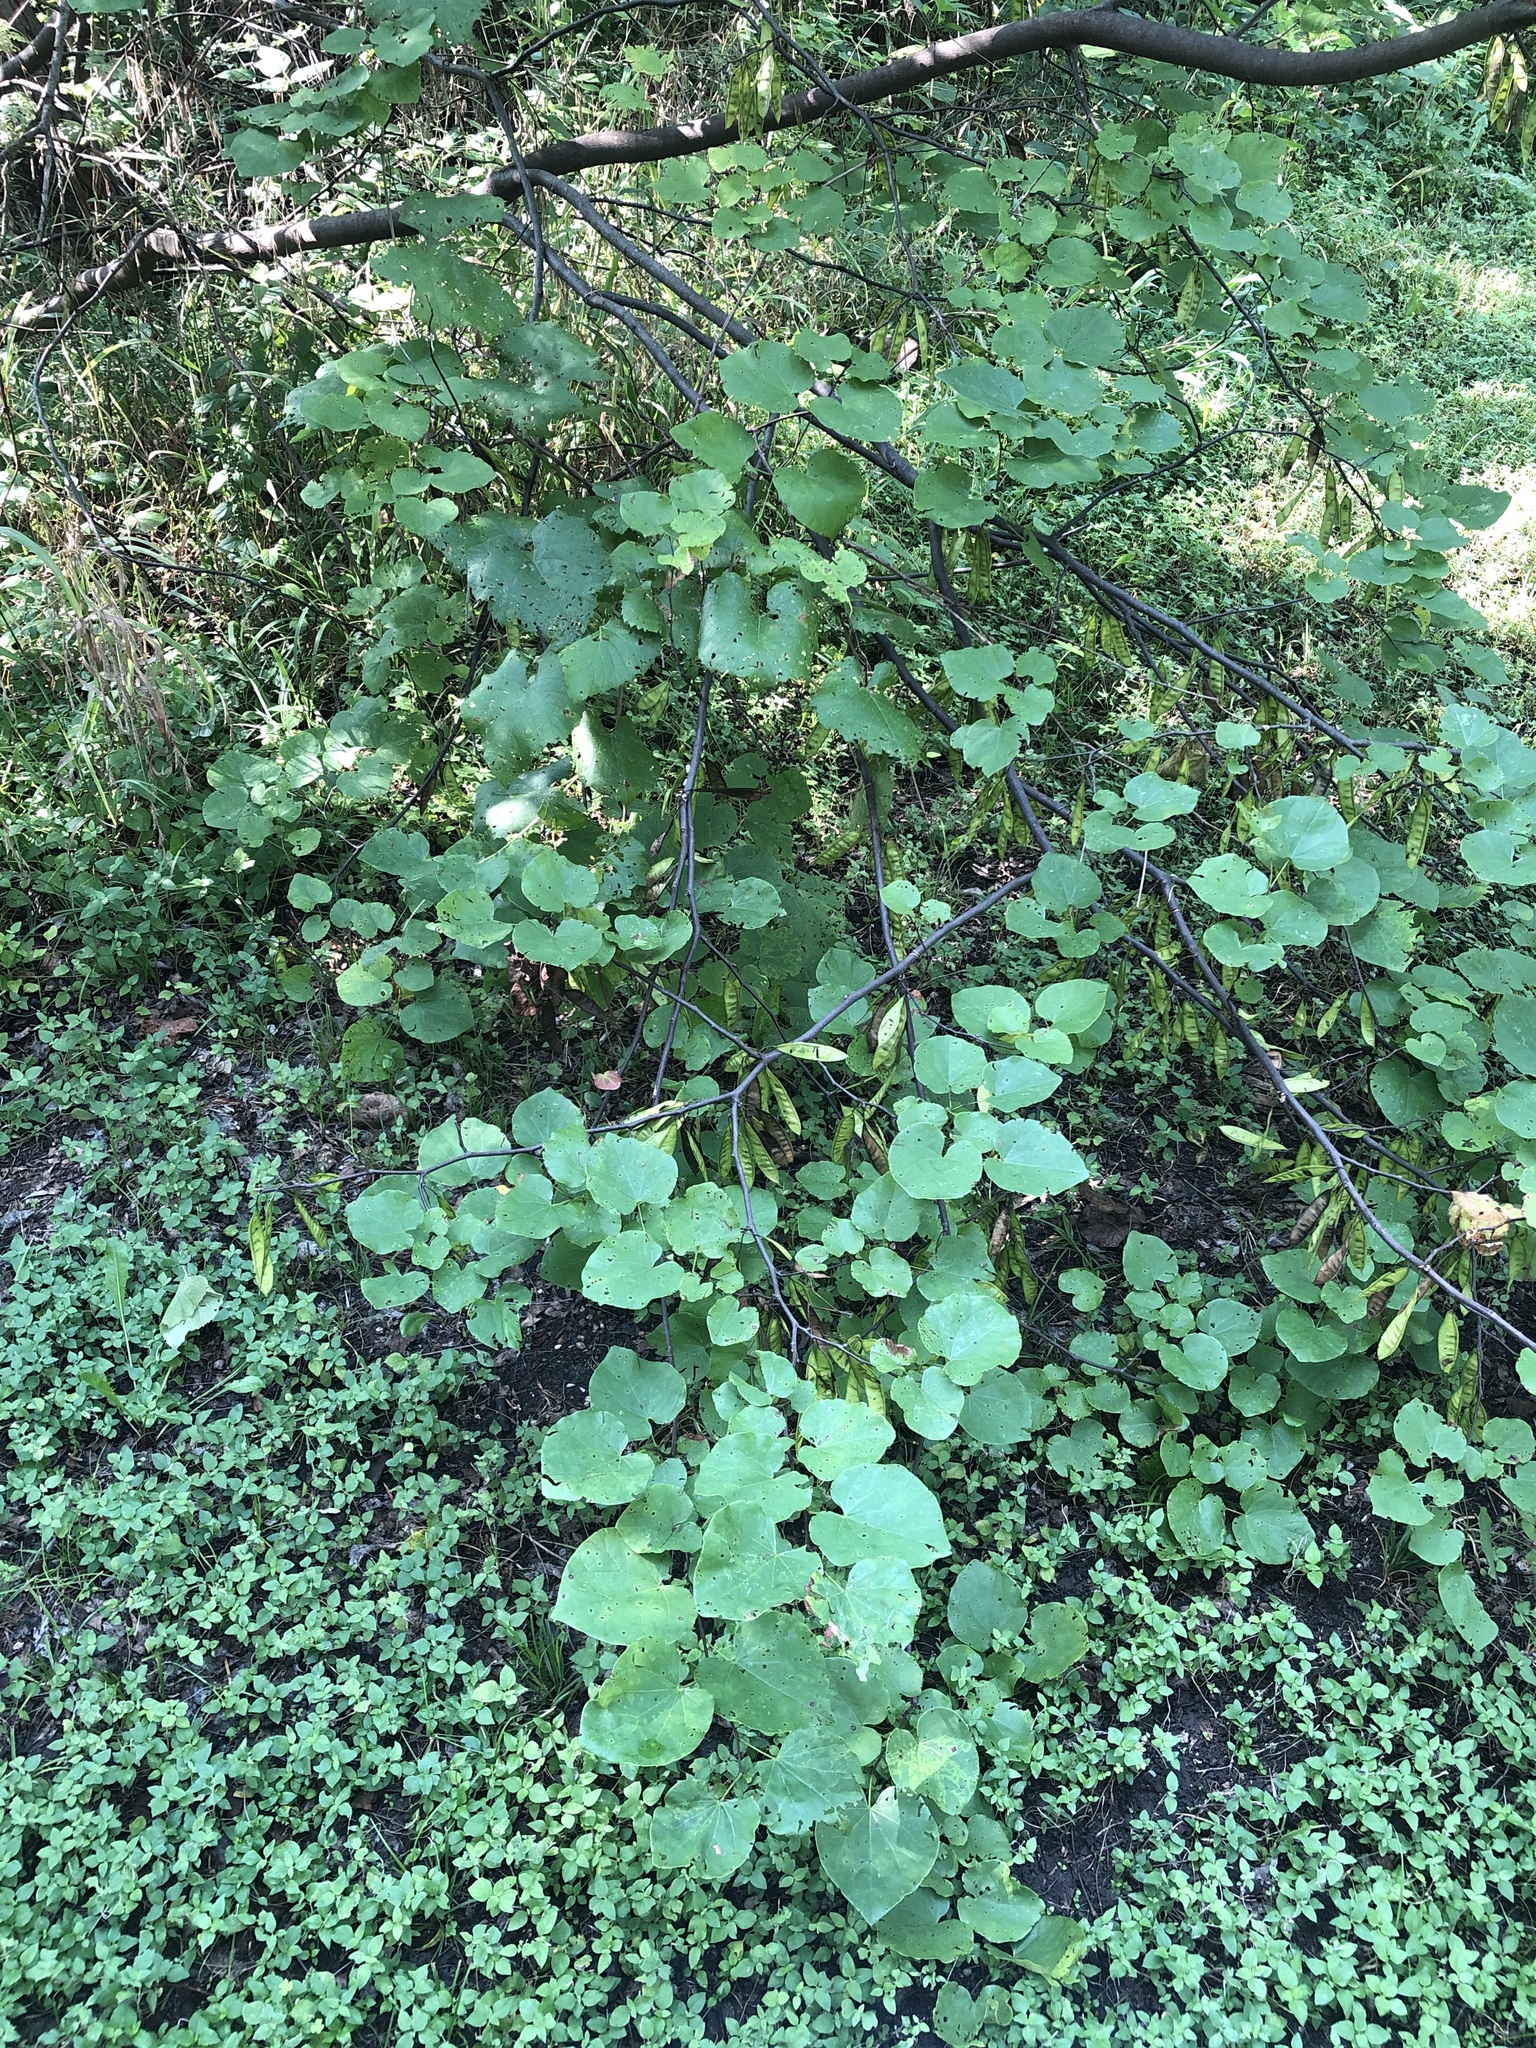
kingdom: Plantae
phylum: Tracheophyta
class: Magnoliopsida
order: Fabales
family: Fabaceae
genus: Cercis
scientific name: Cercis canadensis
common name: Eastern redbud
